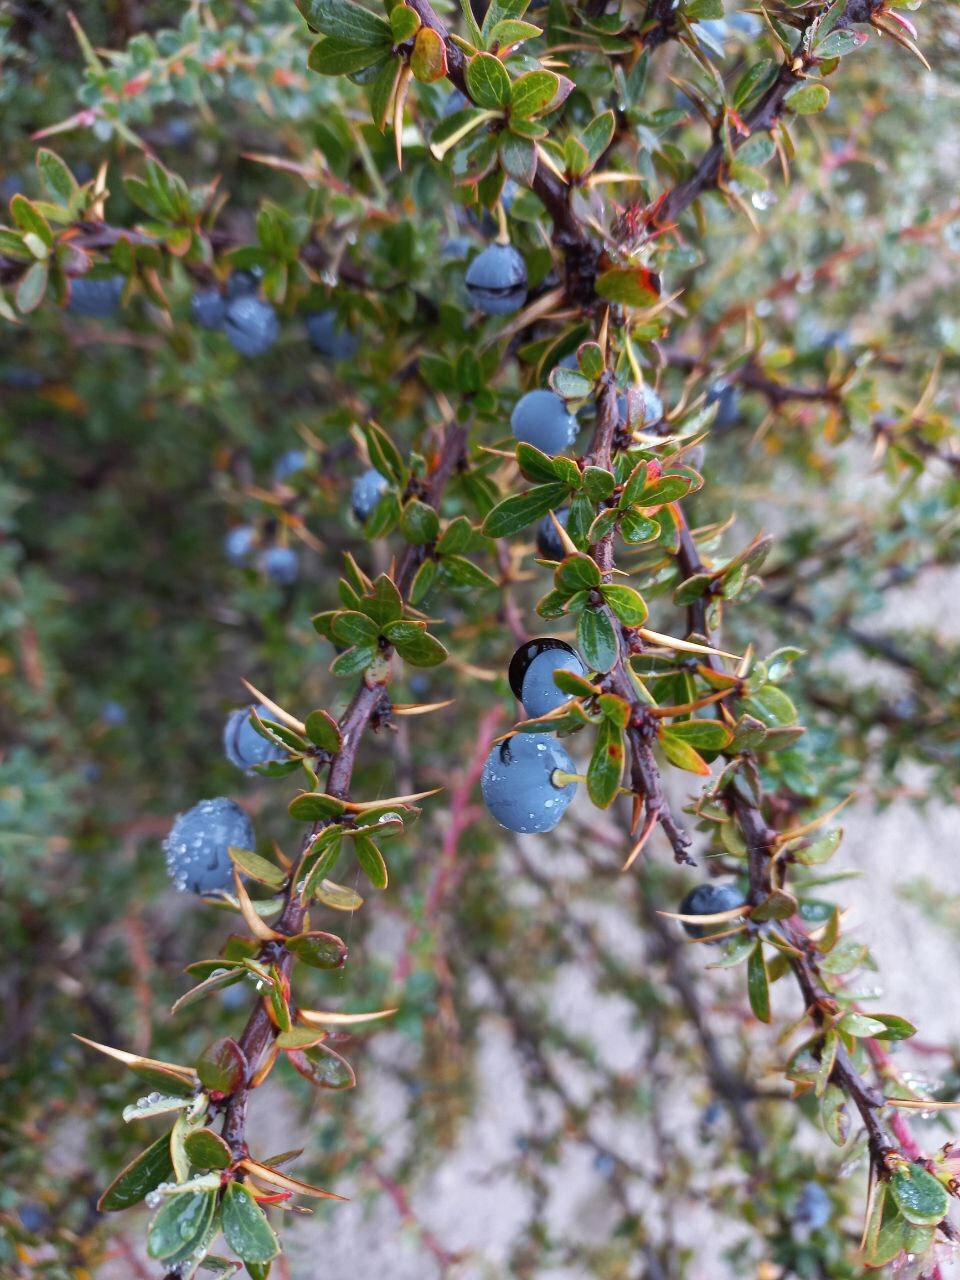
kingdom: Plantae
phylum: Tracheophyta
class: Magnoliopsida
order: Ranunculales
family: Berberidaceae
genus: Berberis
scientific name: Berberis microphylla
